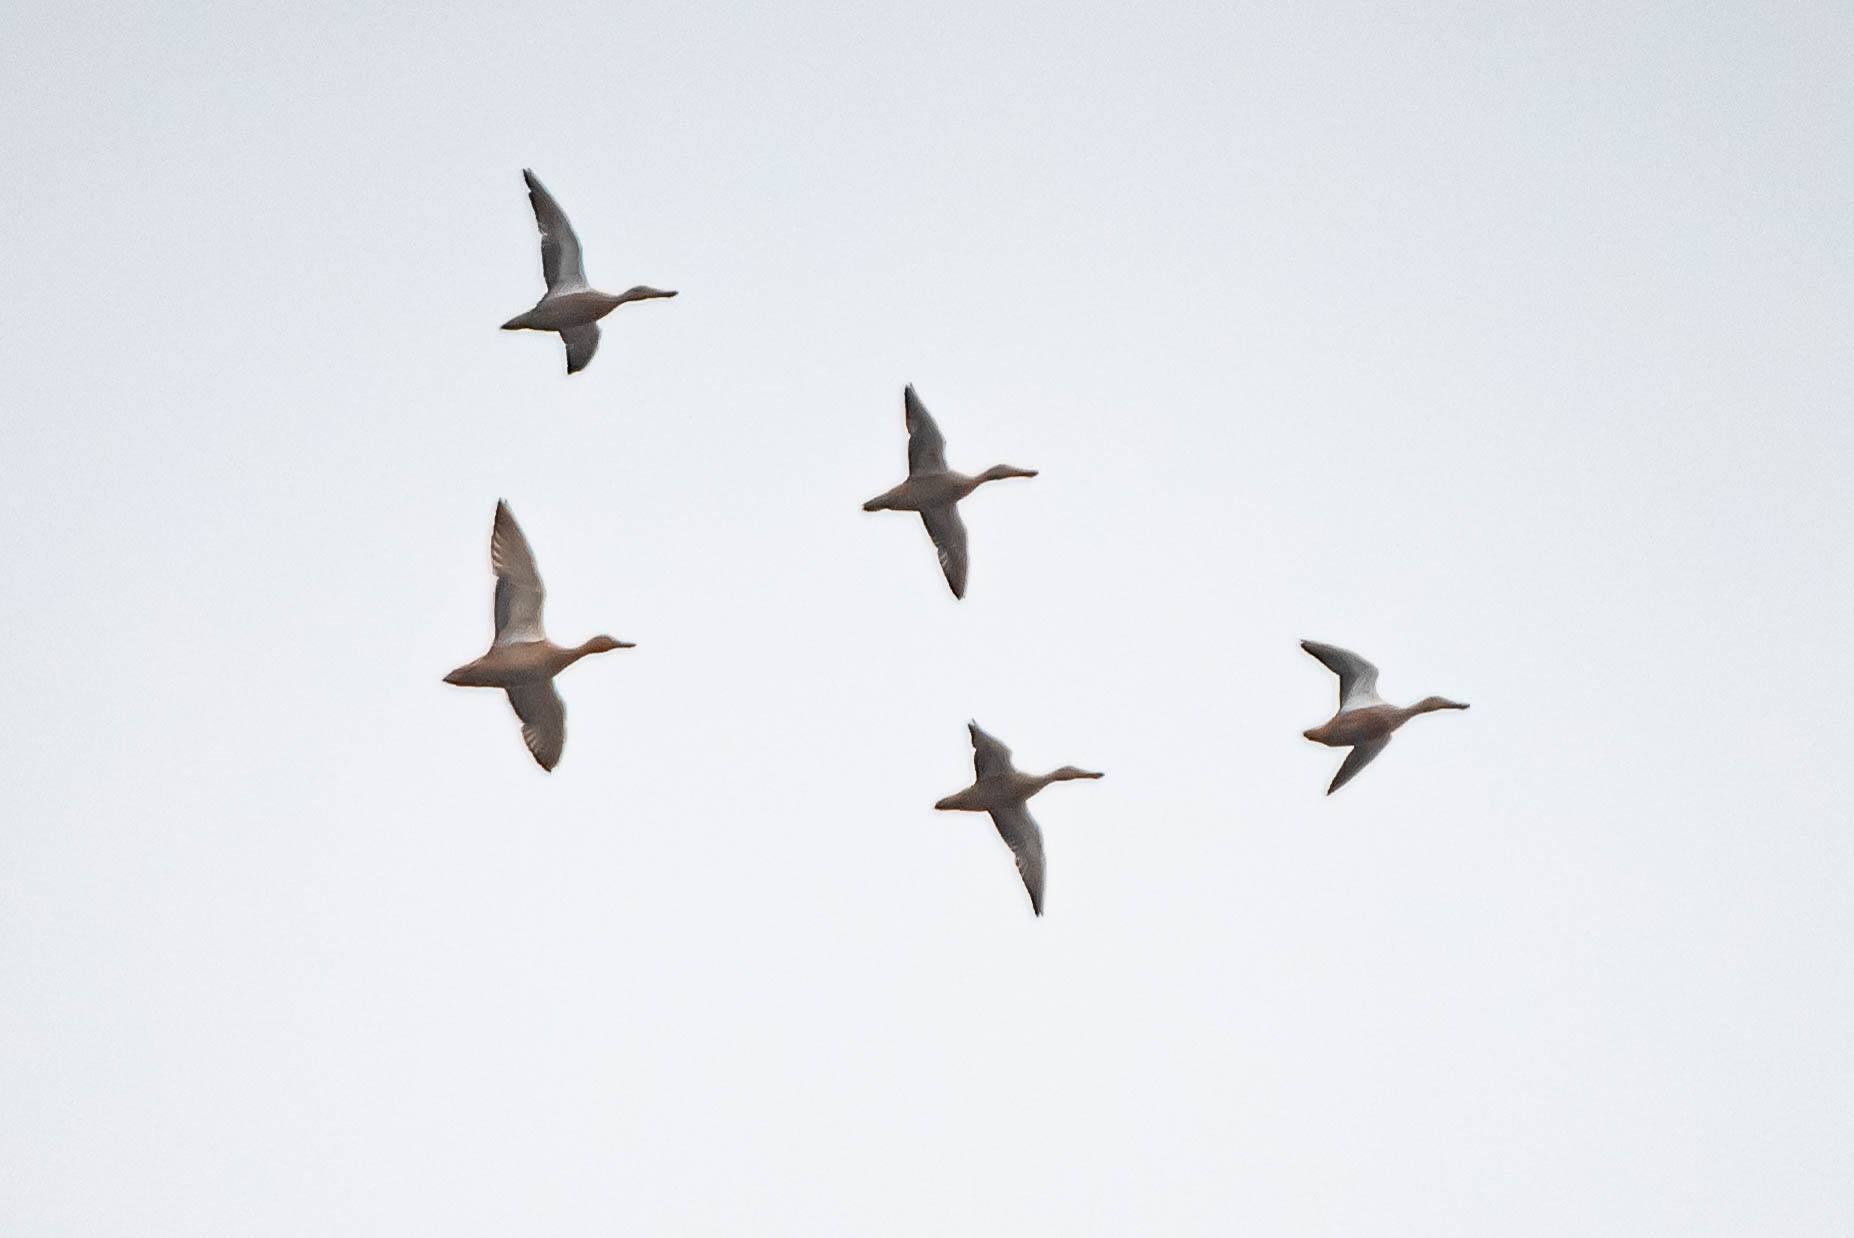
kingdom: Animalia
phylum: Chordata
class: Aves
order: Anseriformes
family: Anatidae
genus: Spatula
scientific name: Spatula clypeata
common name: Northern shoveler
